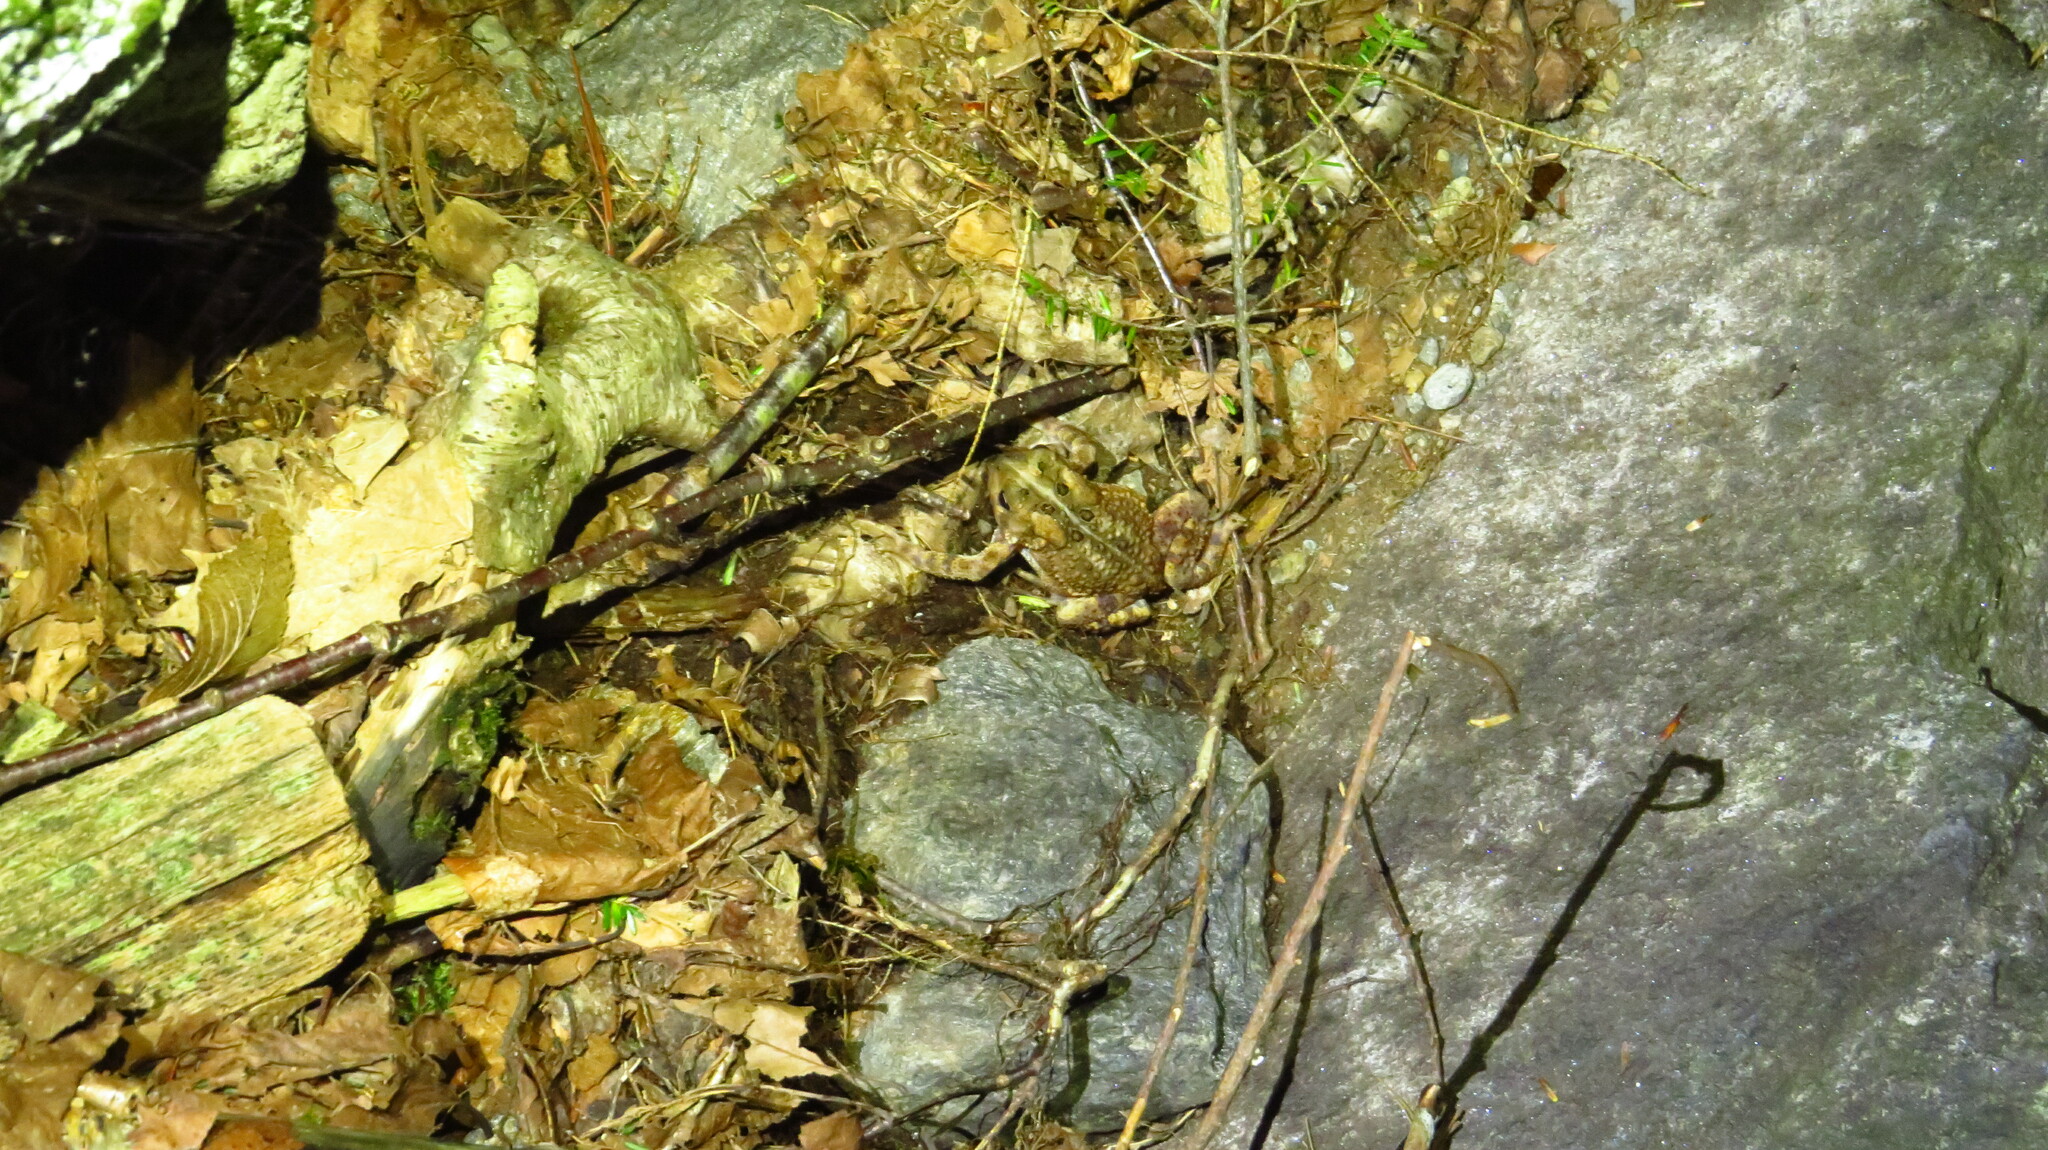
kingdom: Animalia
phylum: Chordata
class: Amphibia
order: Anura
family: Bufonidae
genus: Anaxyrus
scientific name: Anaxyrus americanus
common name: American toad
